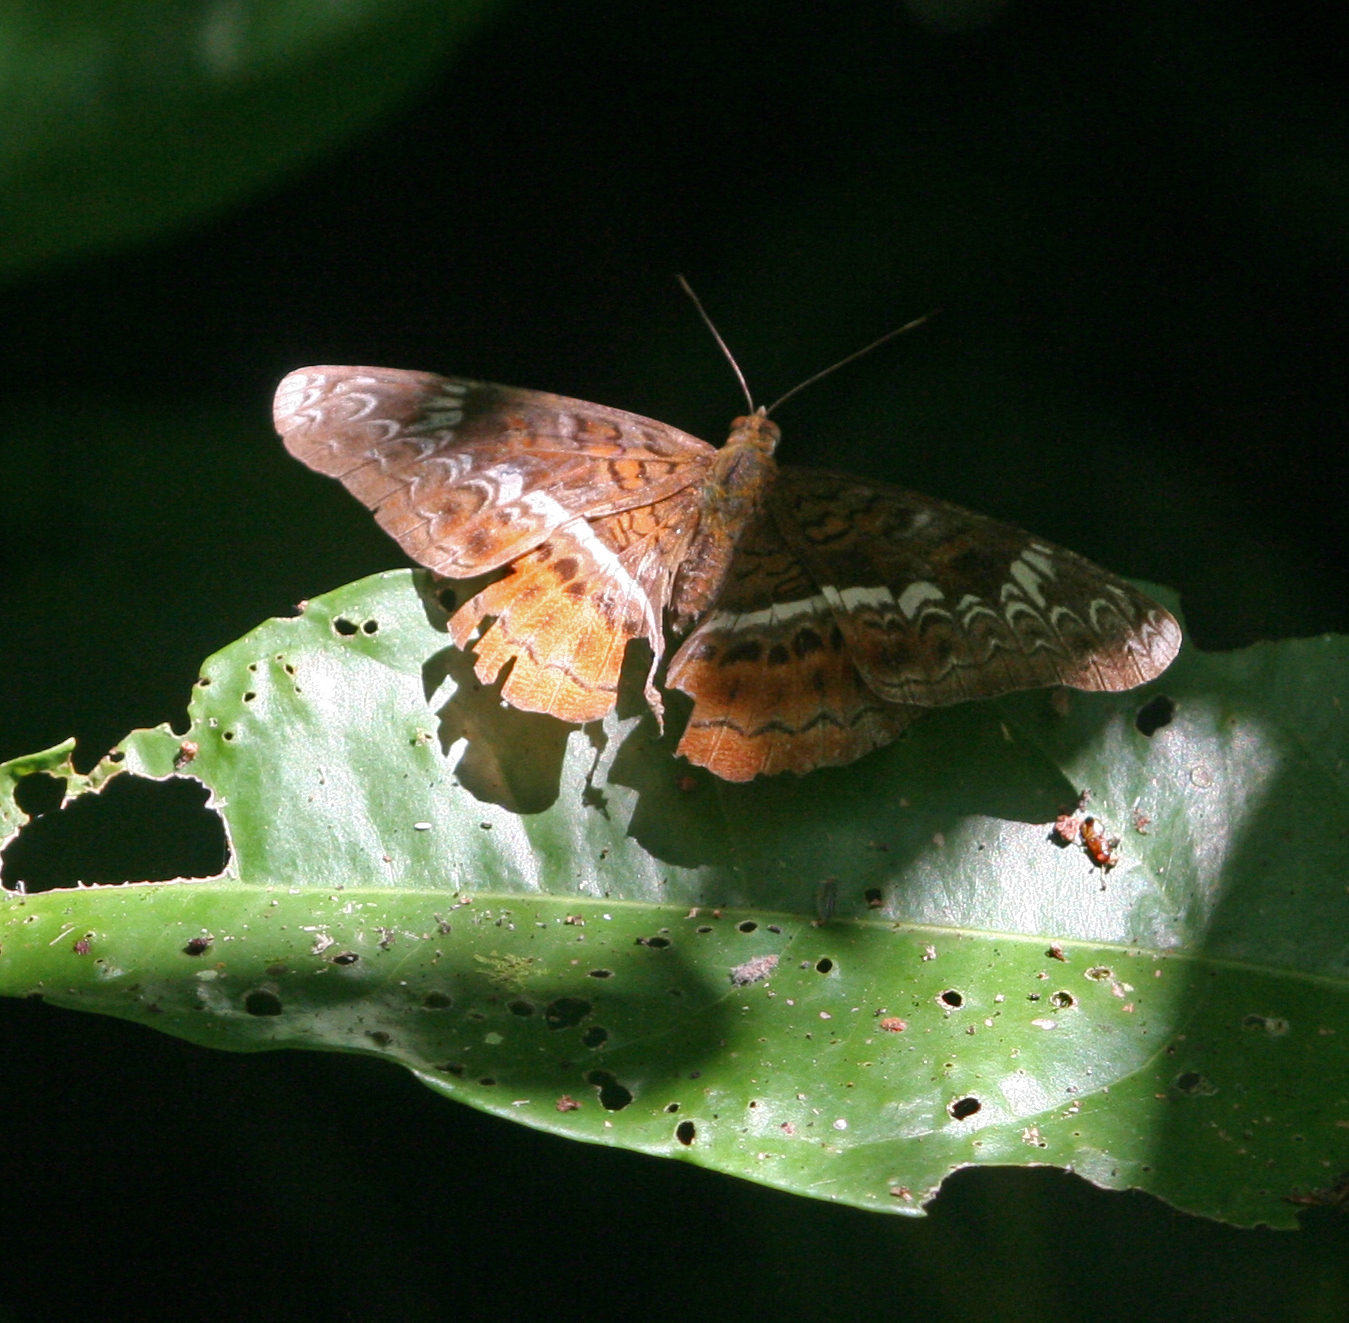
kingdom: Animalia
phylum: Arthropoda
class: Insecta
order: Lepidoptera
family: Nymphalidae
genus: Lebadea
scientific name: Lebadea martha
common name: Knight
